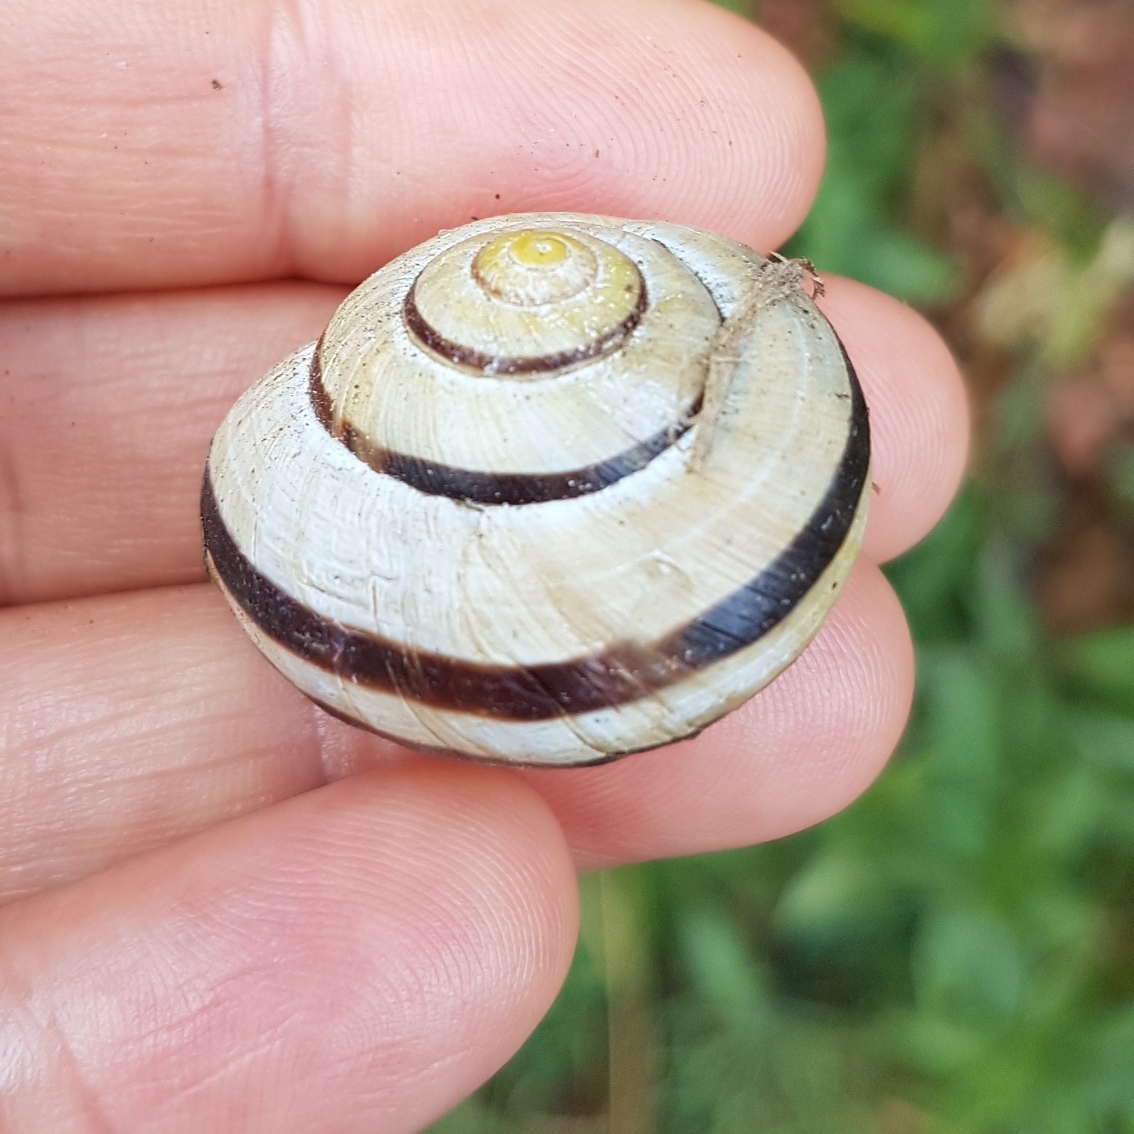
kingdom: Animalia
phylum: Mollusca
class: Gastropoda
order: Stylommatophora
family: Helicidae
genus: Cepaea
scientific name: Cepaea nemoralis
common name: Grovesnail
